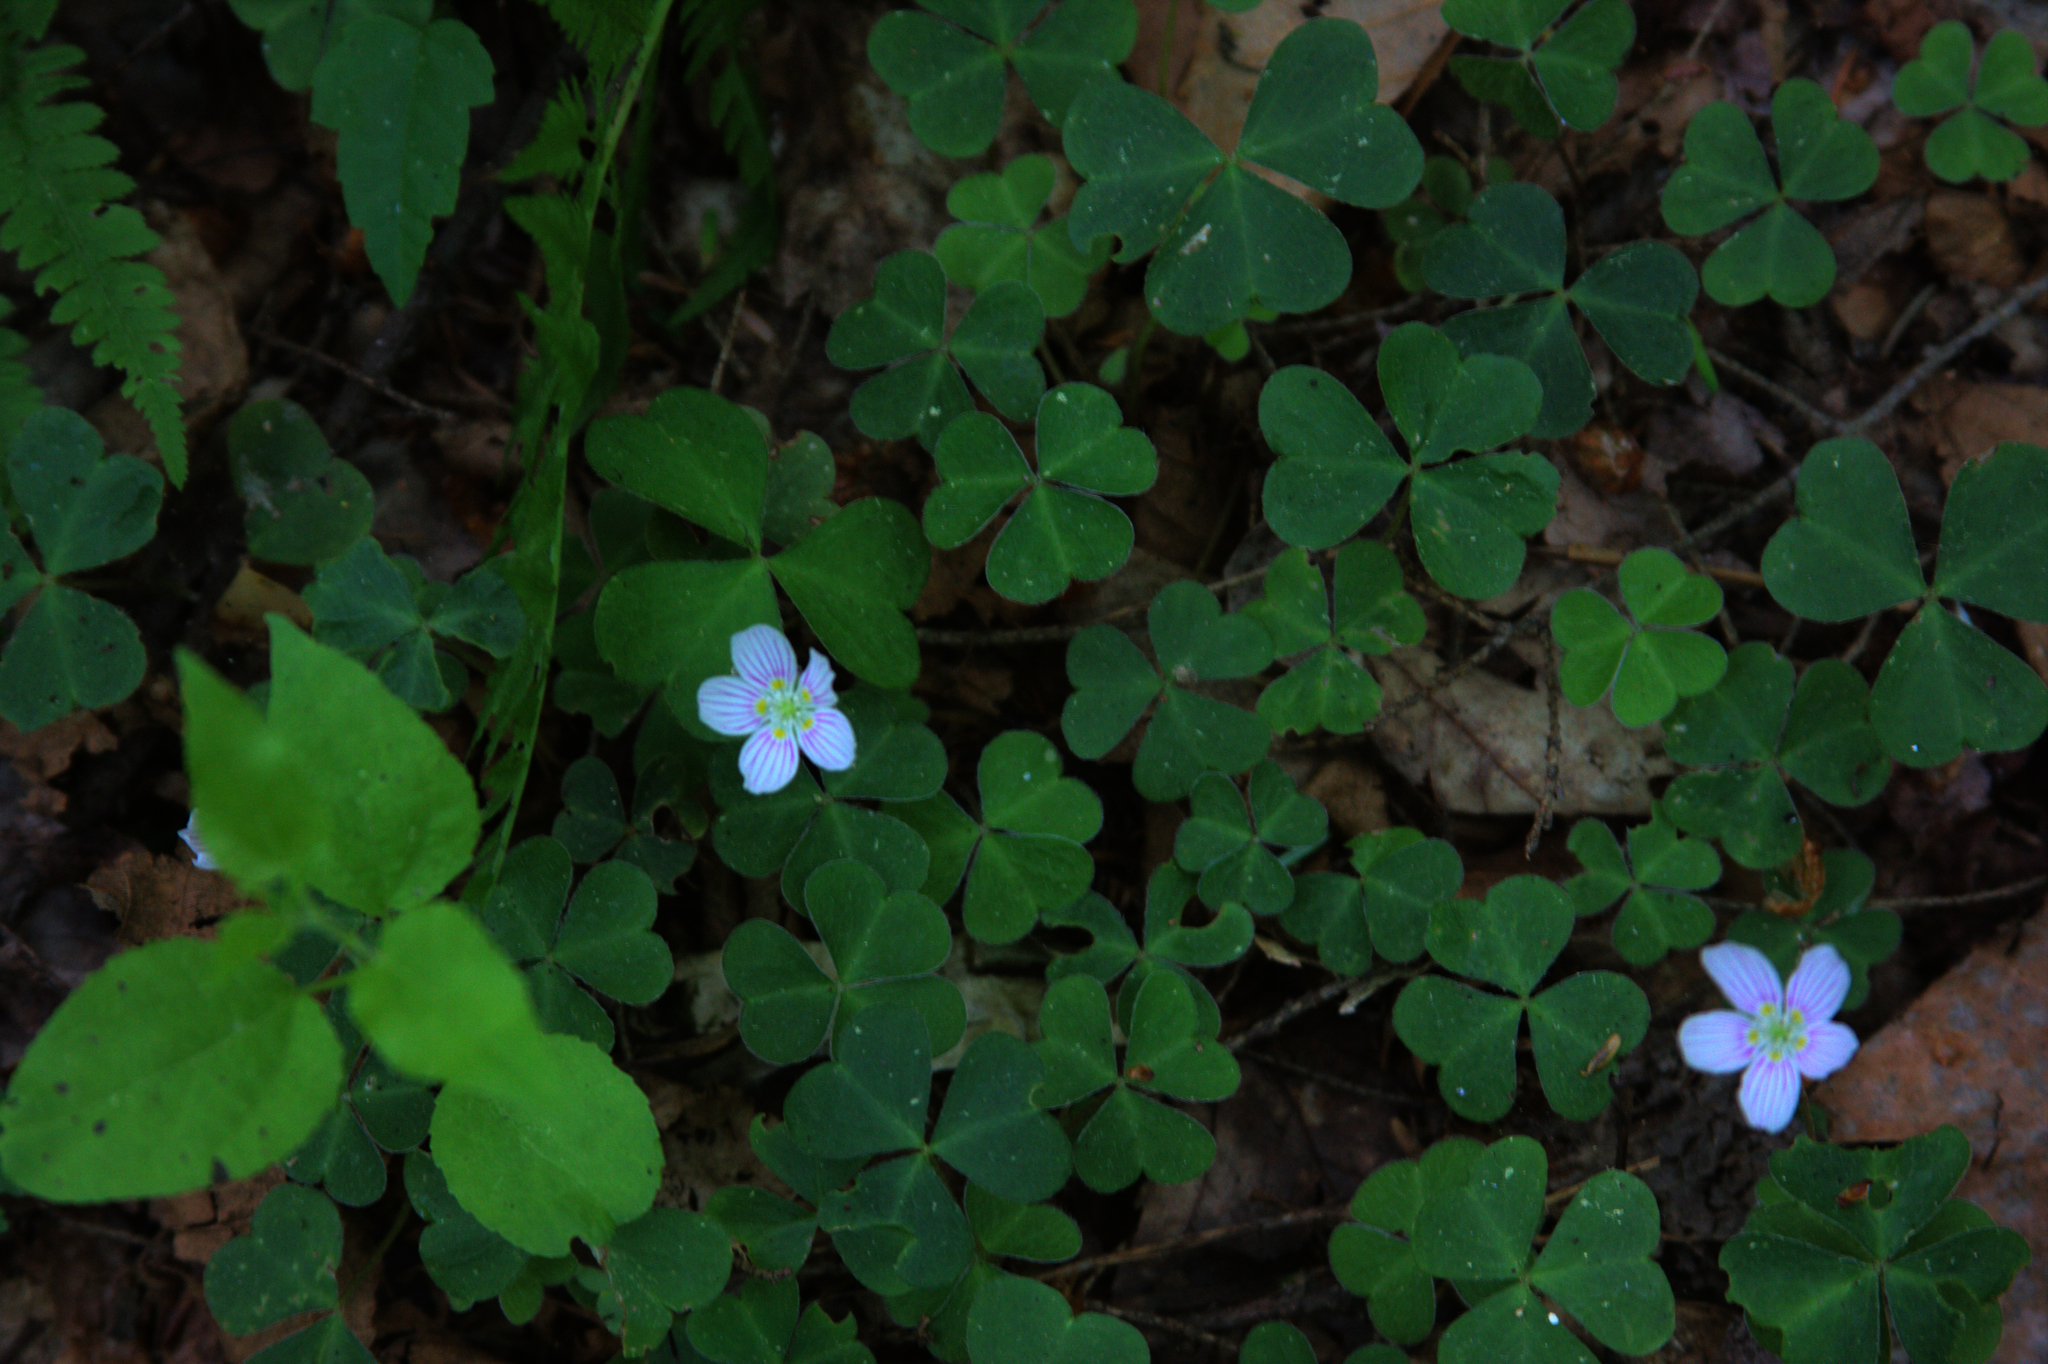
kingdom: Plantae
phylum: Tracheophyta
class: Magnoliopsida
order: Oxalidales
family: Oxalidaceae
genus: Oxalis
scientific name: Oxalis montana
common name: American wood-sorrel
